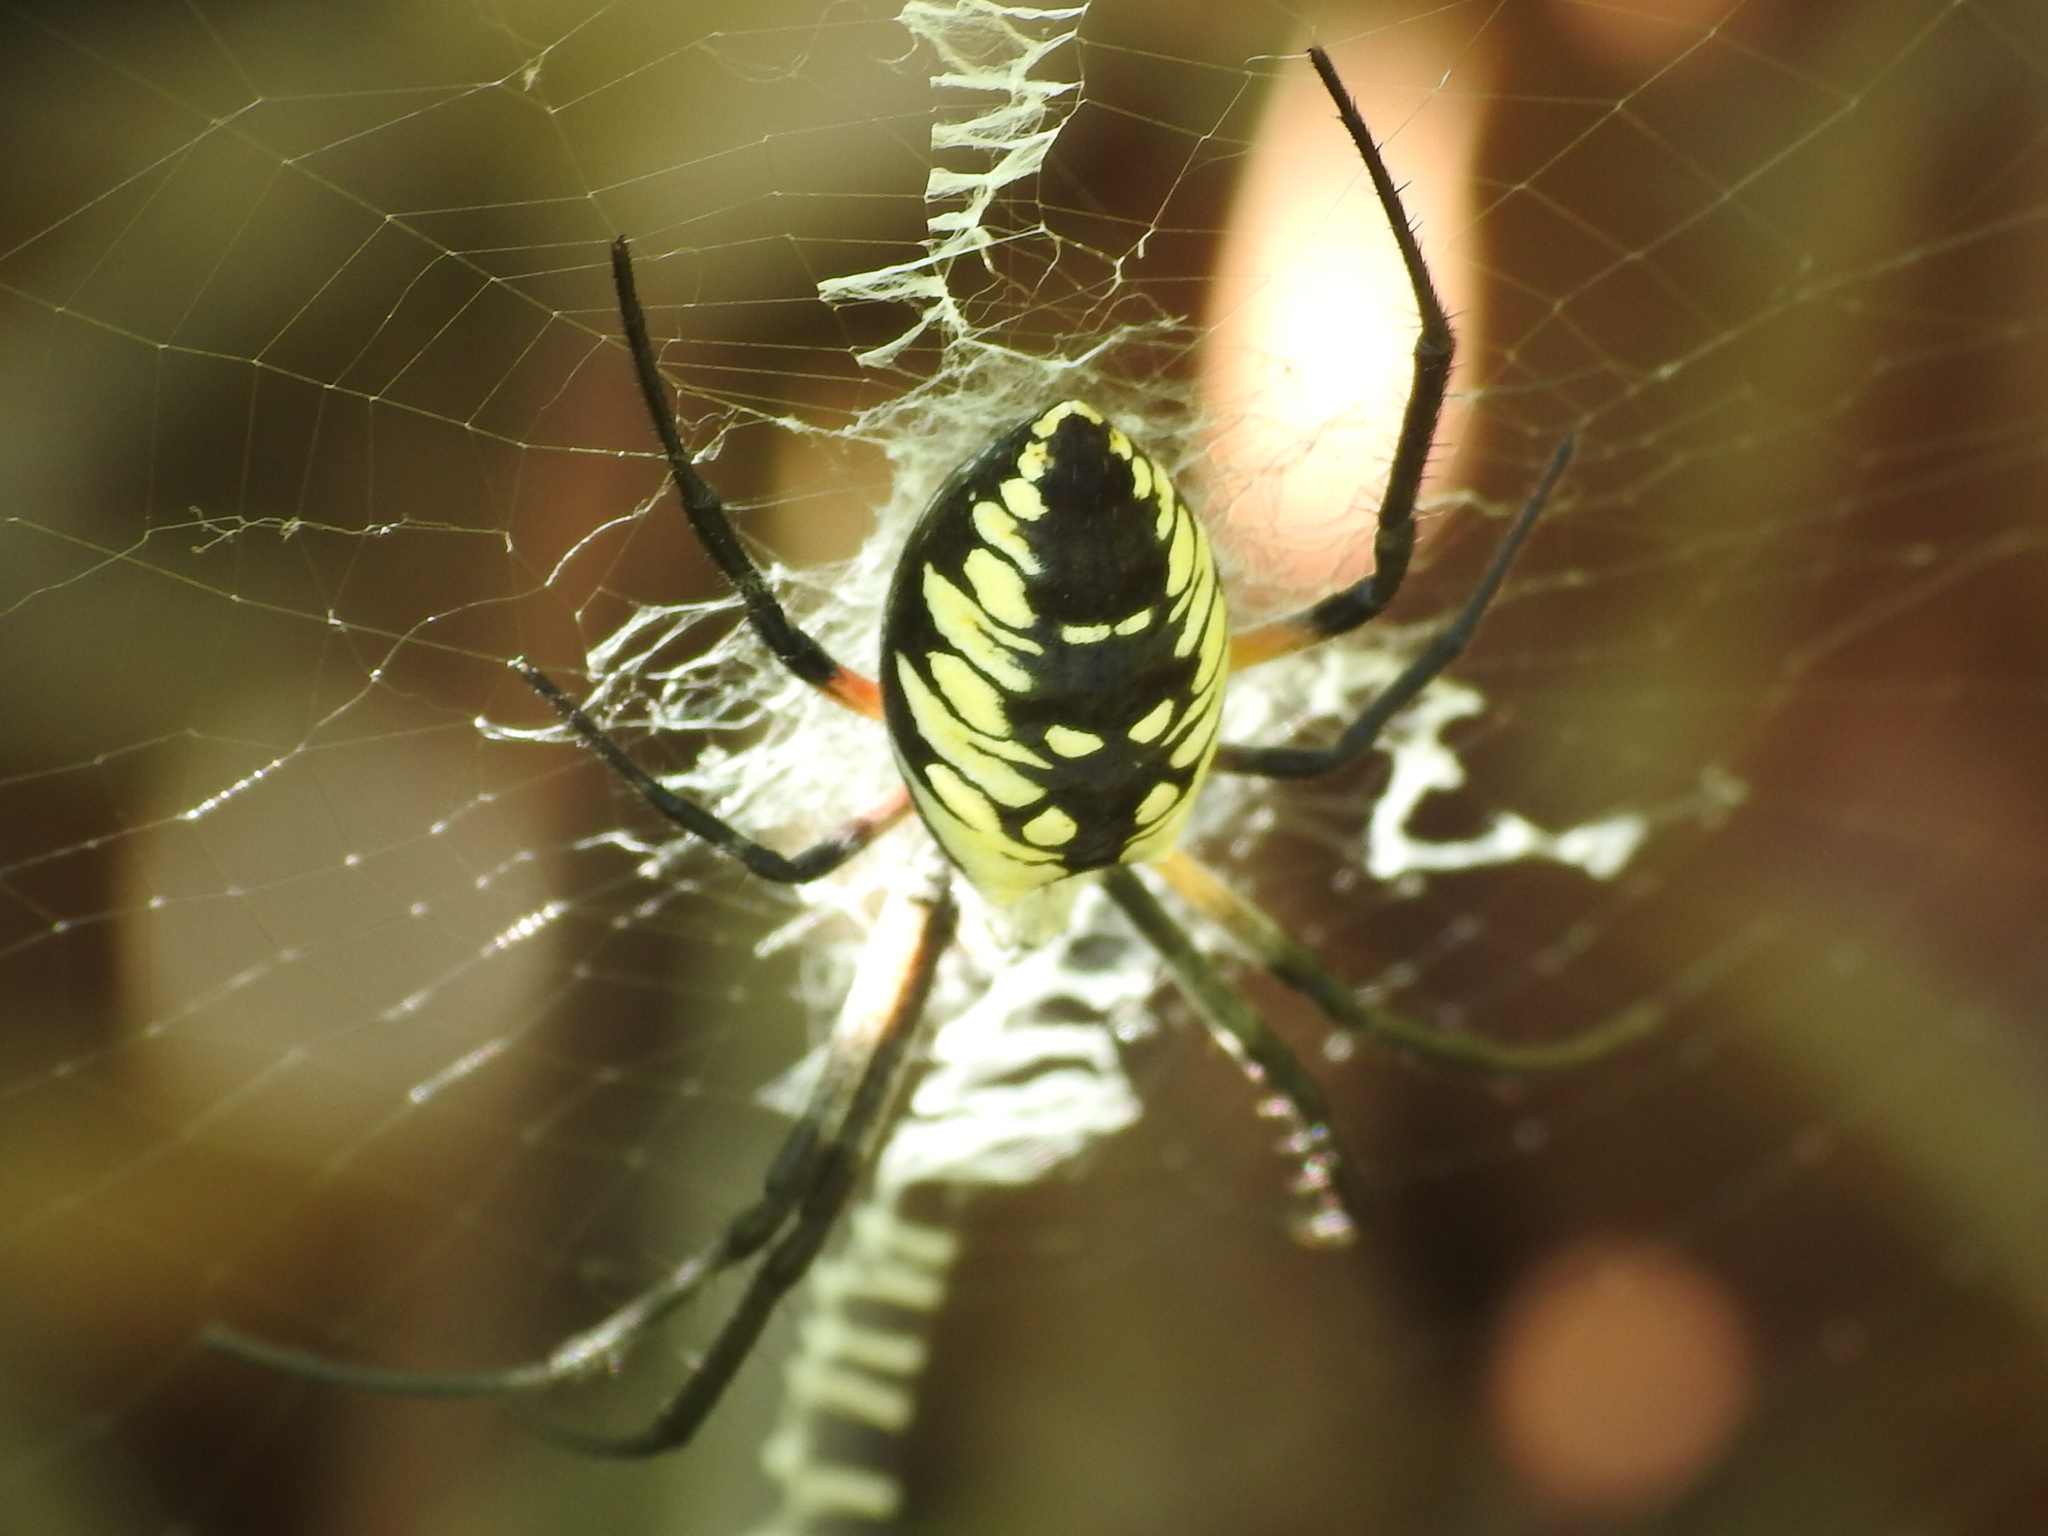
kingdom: Animalia
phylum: Arthropoda
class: Arachnida
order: Araneae
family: Araneidae
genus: Argiope
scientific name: Argiope aurantia
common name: Orb weavers
